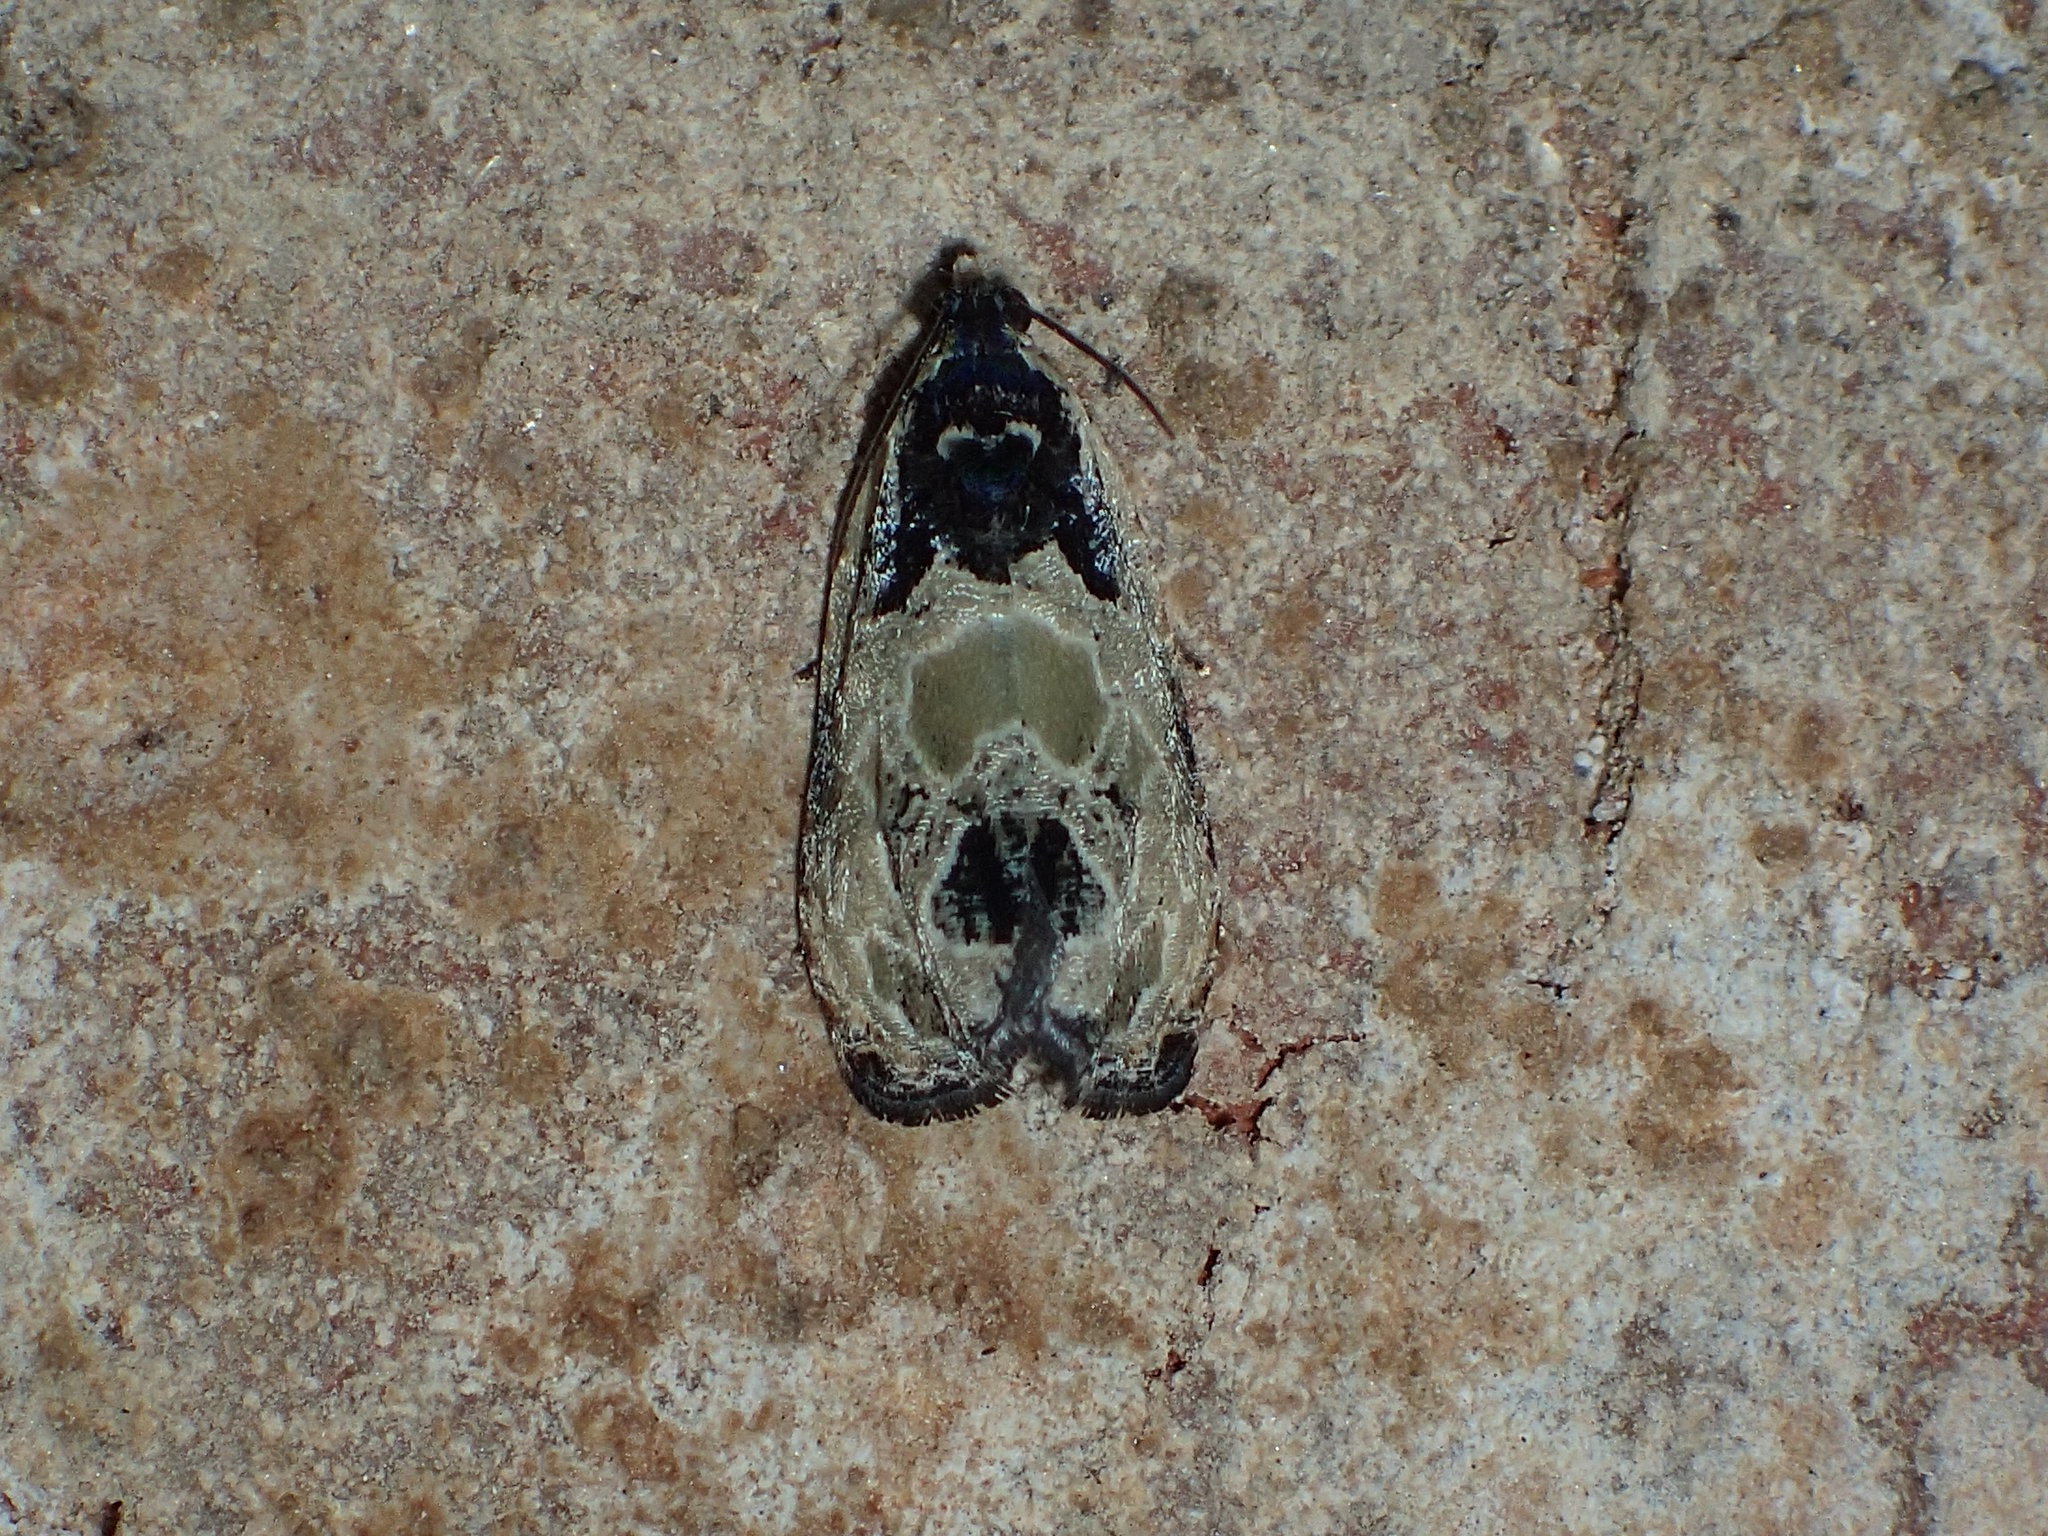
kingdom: Animalia
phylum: Arthropoda
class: Insecta
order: Lepidoptera
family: Tortricidae
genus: Olethreutes
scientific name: Olethreutes griseoalbana
